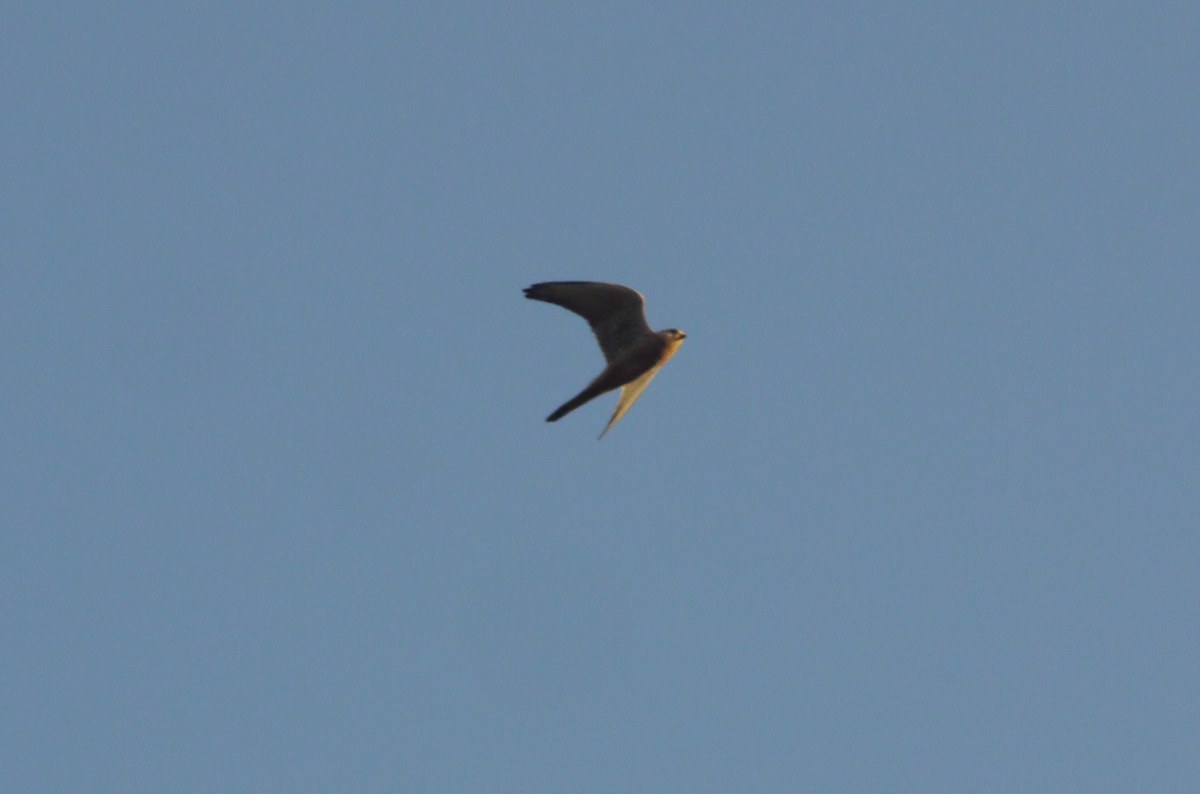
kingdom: Animalia
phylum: Chordata
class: Aves
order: Falconiformes
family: Falconidae
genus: Falco
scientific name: Falco tinnunculus
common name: Common kestrel
